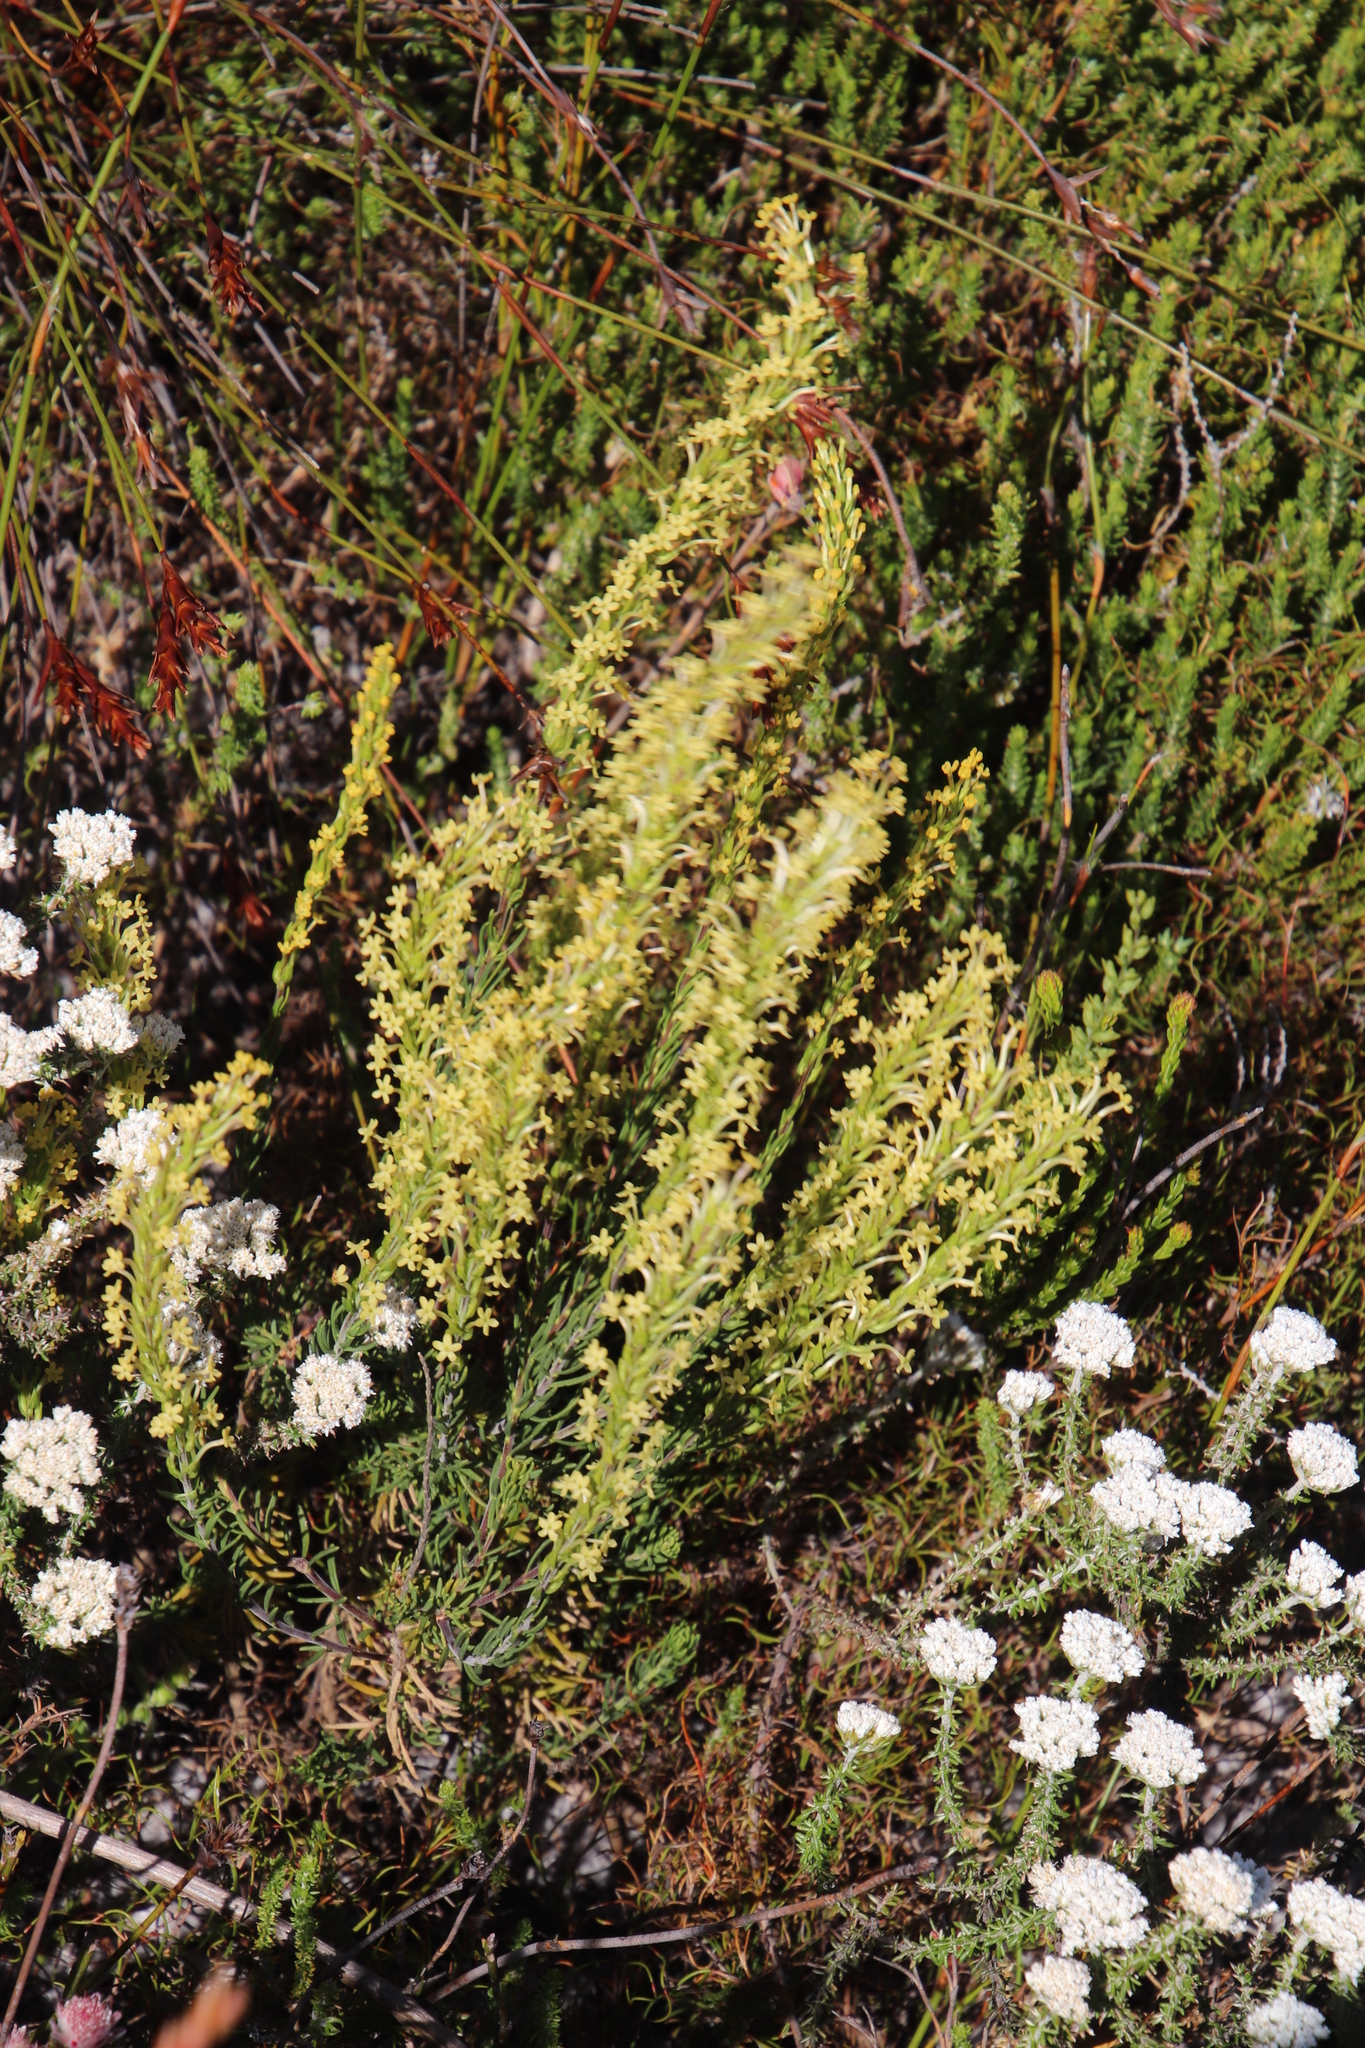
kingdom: Plantae
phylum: Tracheophyta
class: Magnoliopsida
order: Lamiales
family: Scrophulariaceae
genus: Microdon
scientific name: Microdon dubius
